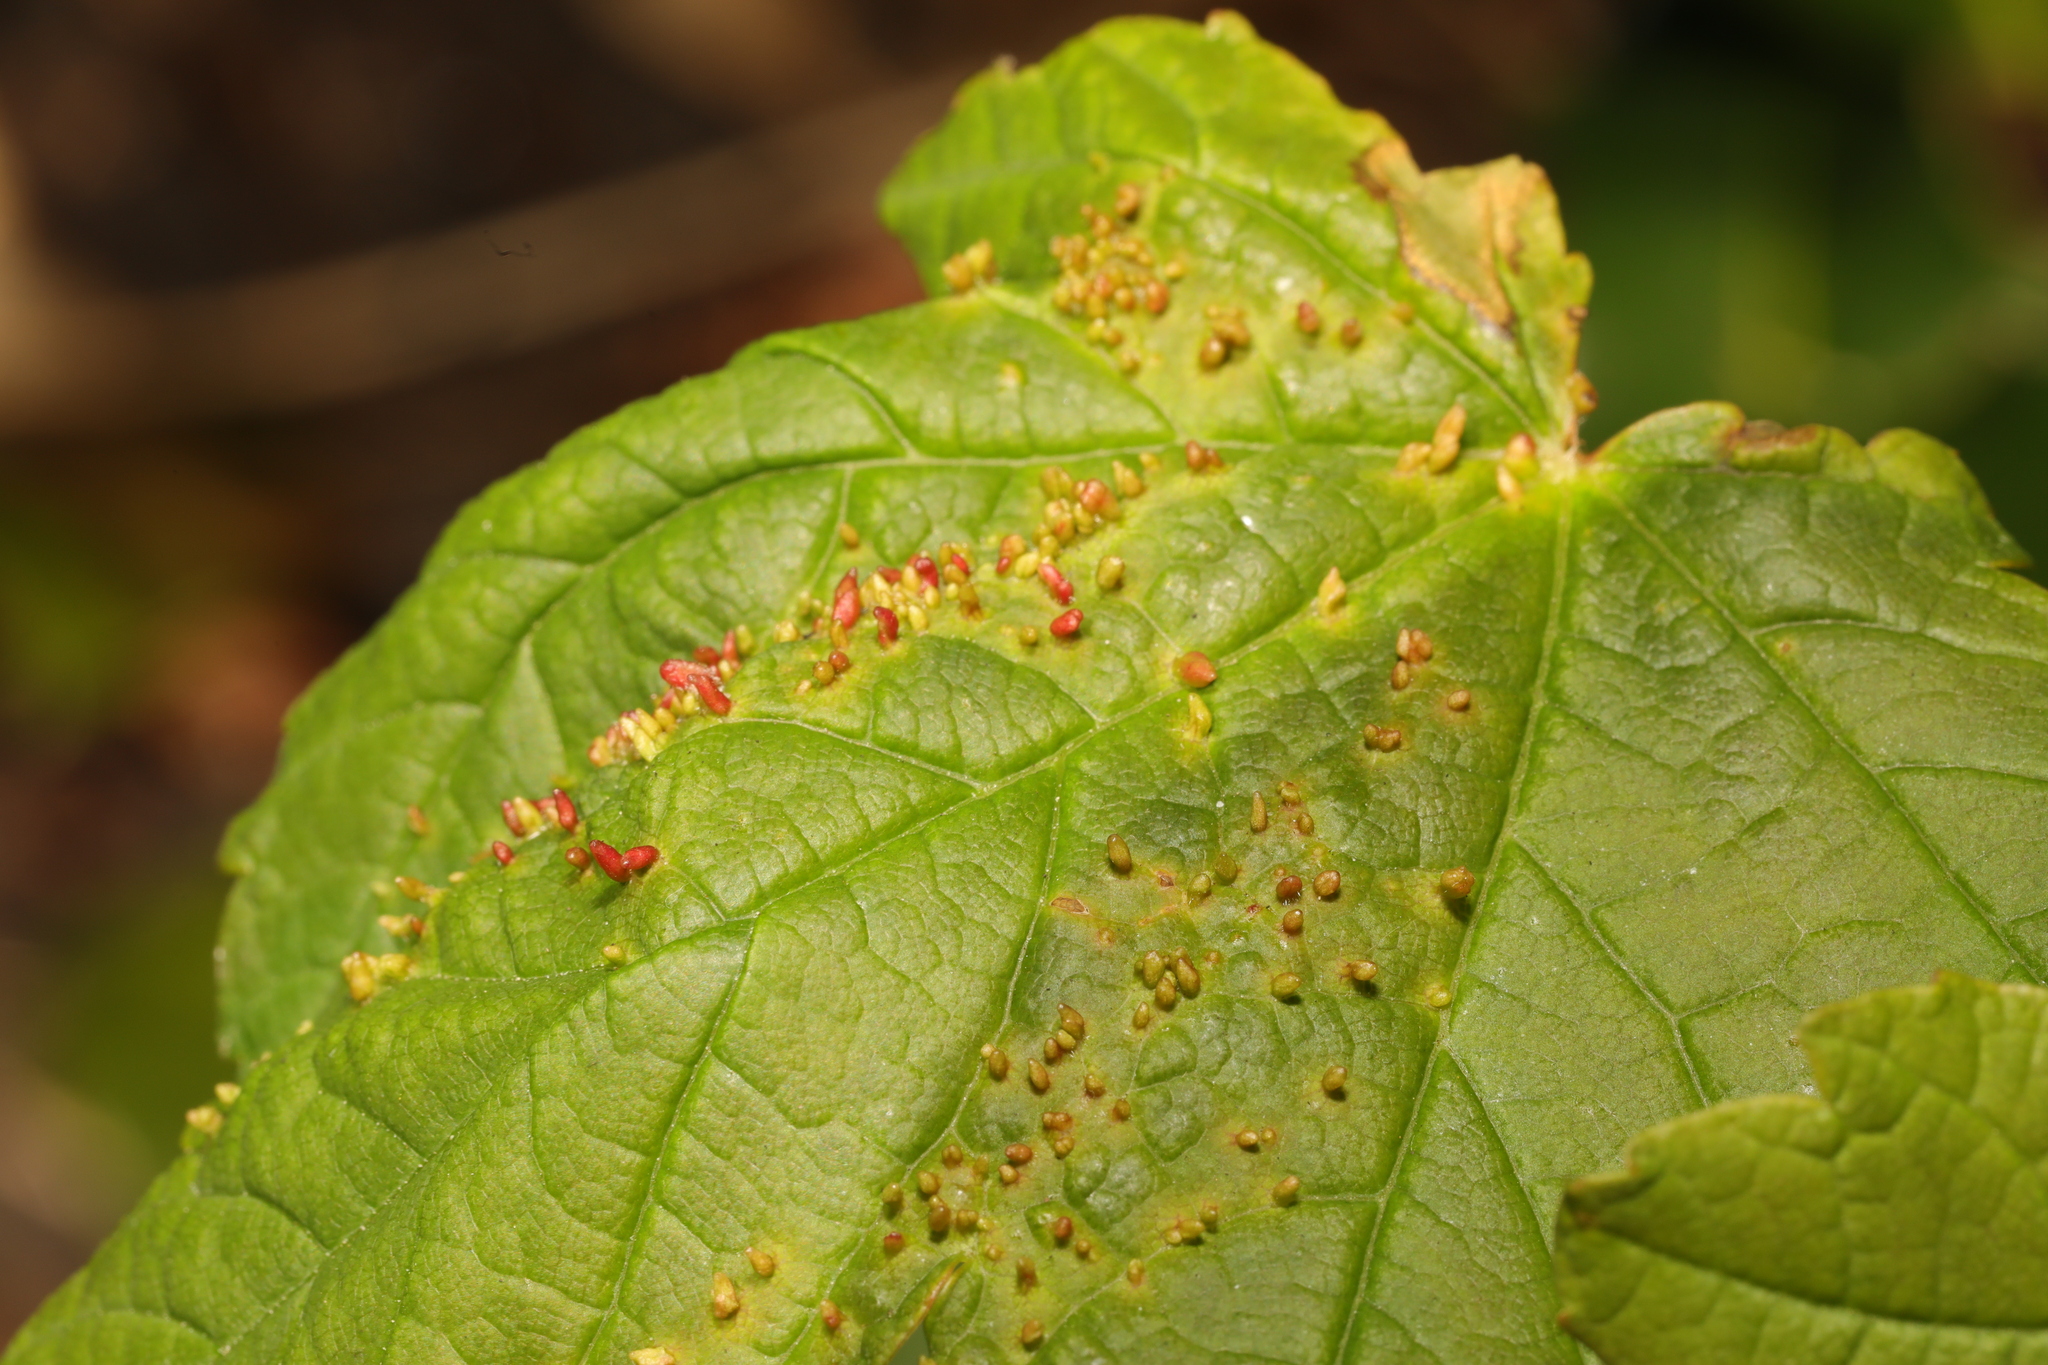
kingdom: Animalia
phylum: Arthropoda
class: Arachnida
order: Trombidiformes
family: Eriophyidae
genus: Aceria
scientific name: Aceria cephaloneus
